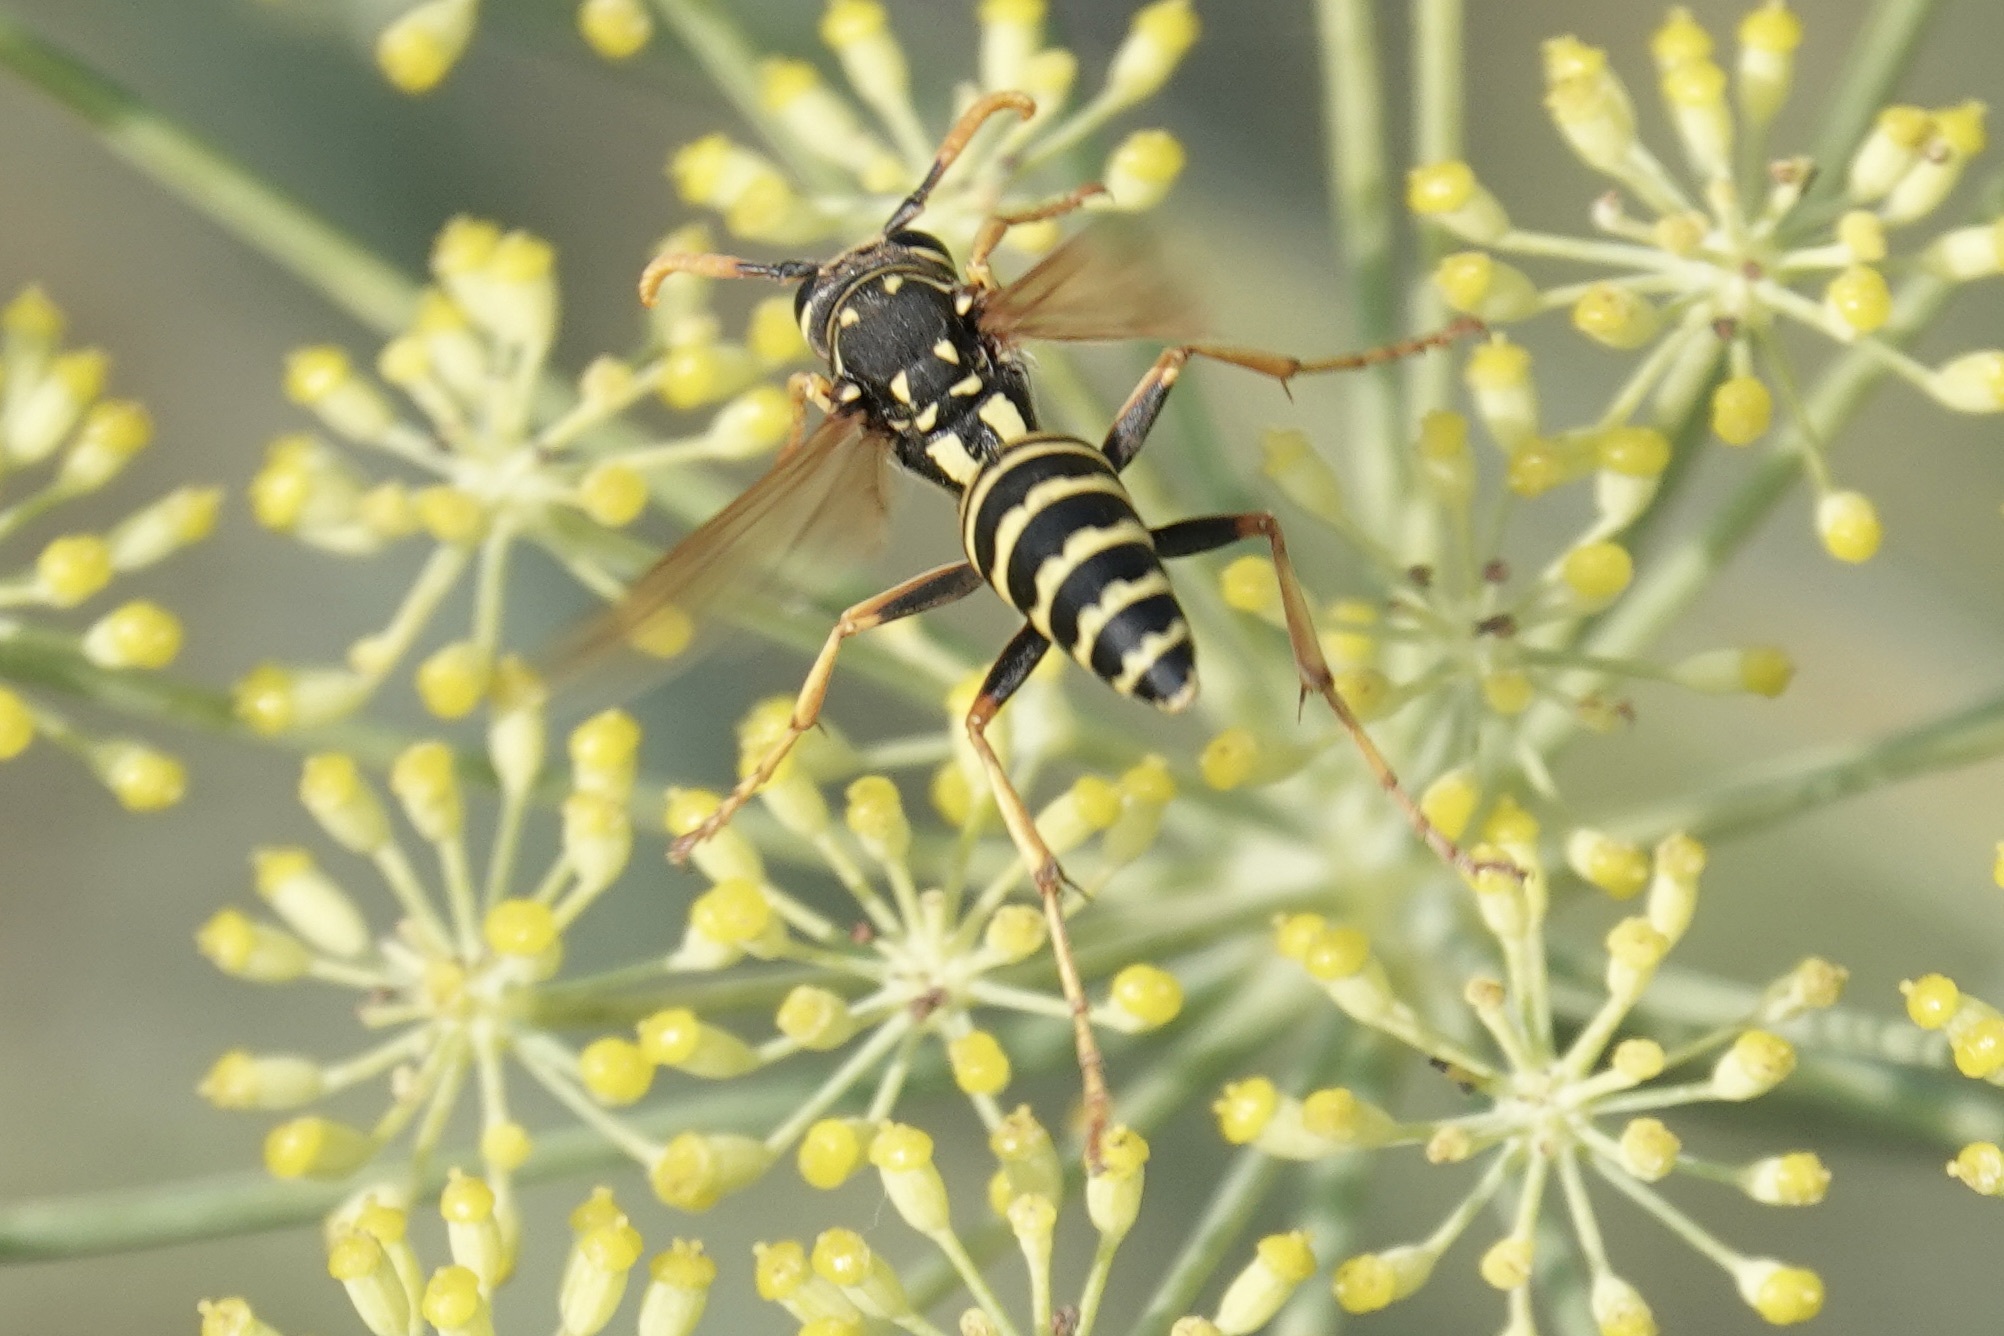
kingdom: Animalia
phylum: Arthropoda
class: Insecta
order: Hymenoptera
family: Eumenidae
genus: Polistes
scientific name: Polistes dominula
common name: Paper wasp
